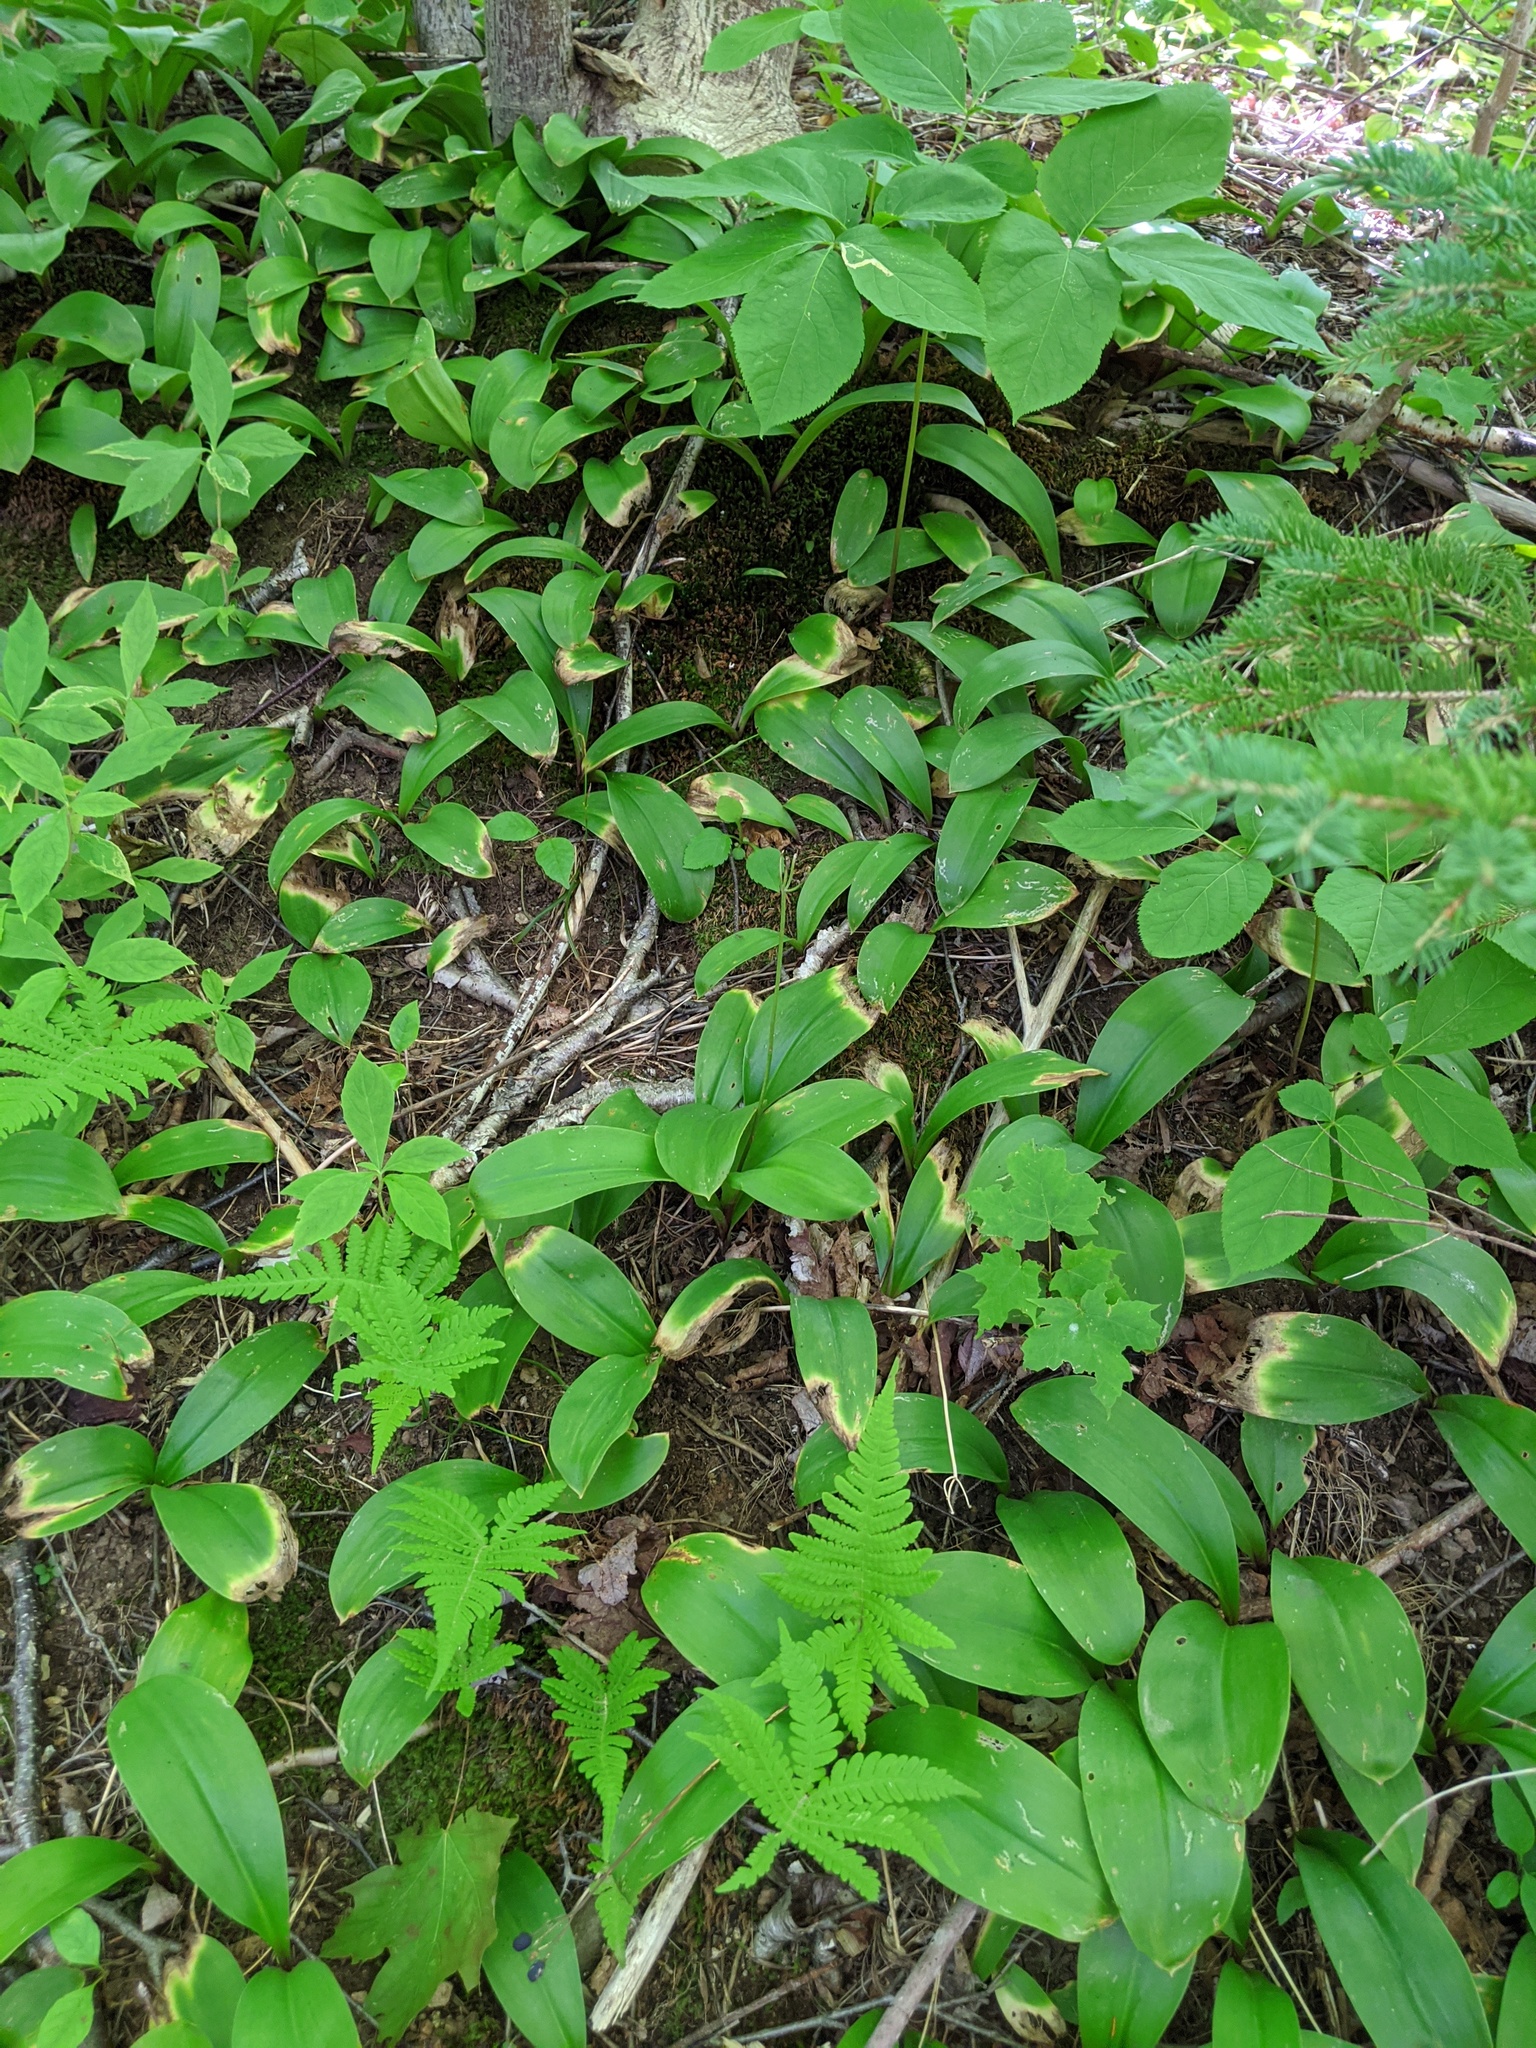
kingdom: Plantae
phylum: Tracheophyta
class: Liliopsida
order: Liliales
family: Liliaceae
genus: Clintonia
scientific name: Clintonia borealis
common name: Yellow clintonia
